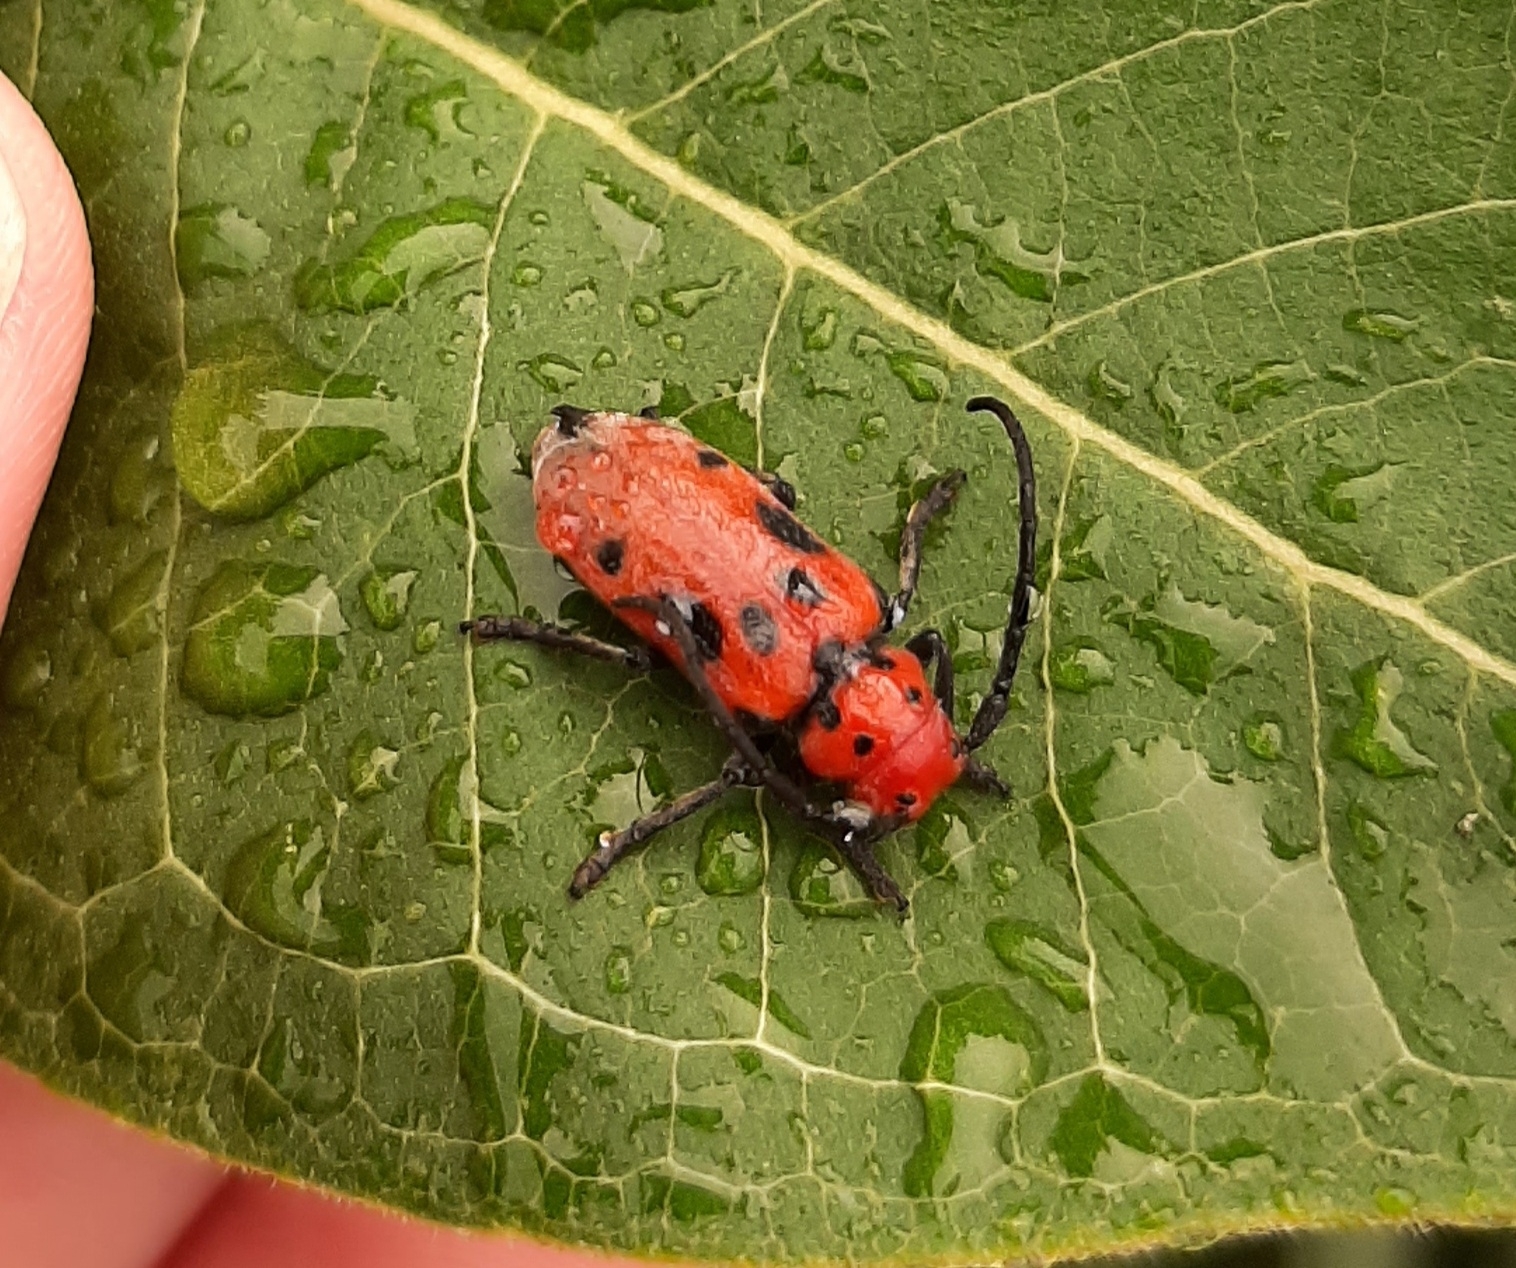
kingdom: Animalia
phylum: Arthropoda
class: Insecta
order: Coleoptera
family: Cerambycidae
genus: Tetraopes
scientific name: Tetraopes tetrophthalmus
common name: Red milkweed beetle
